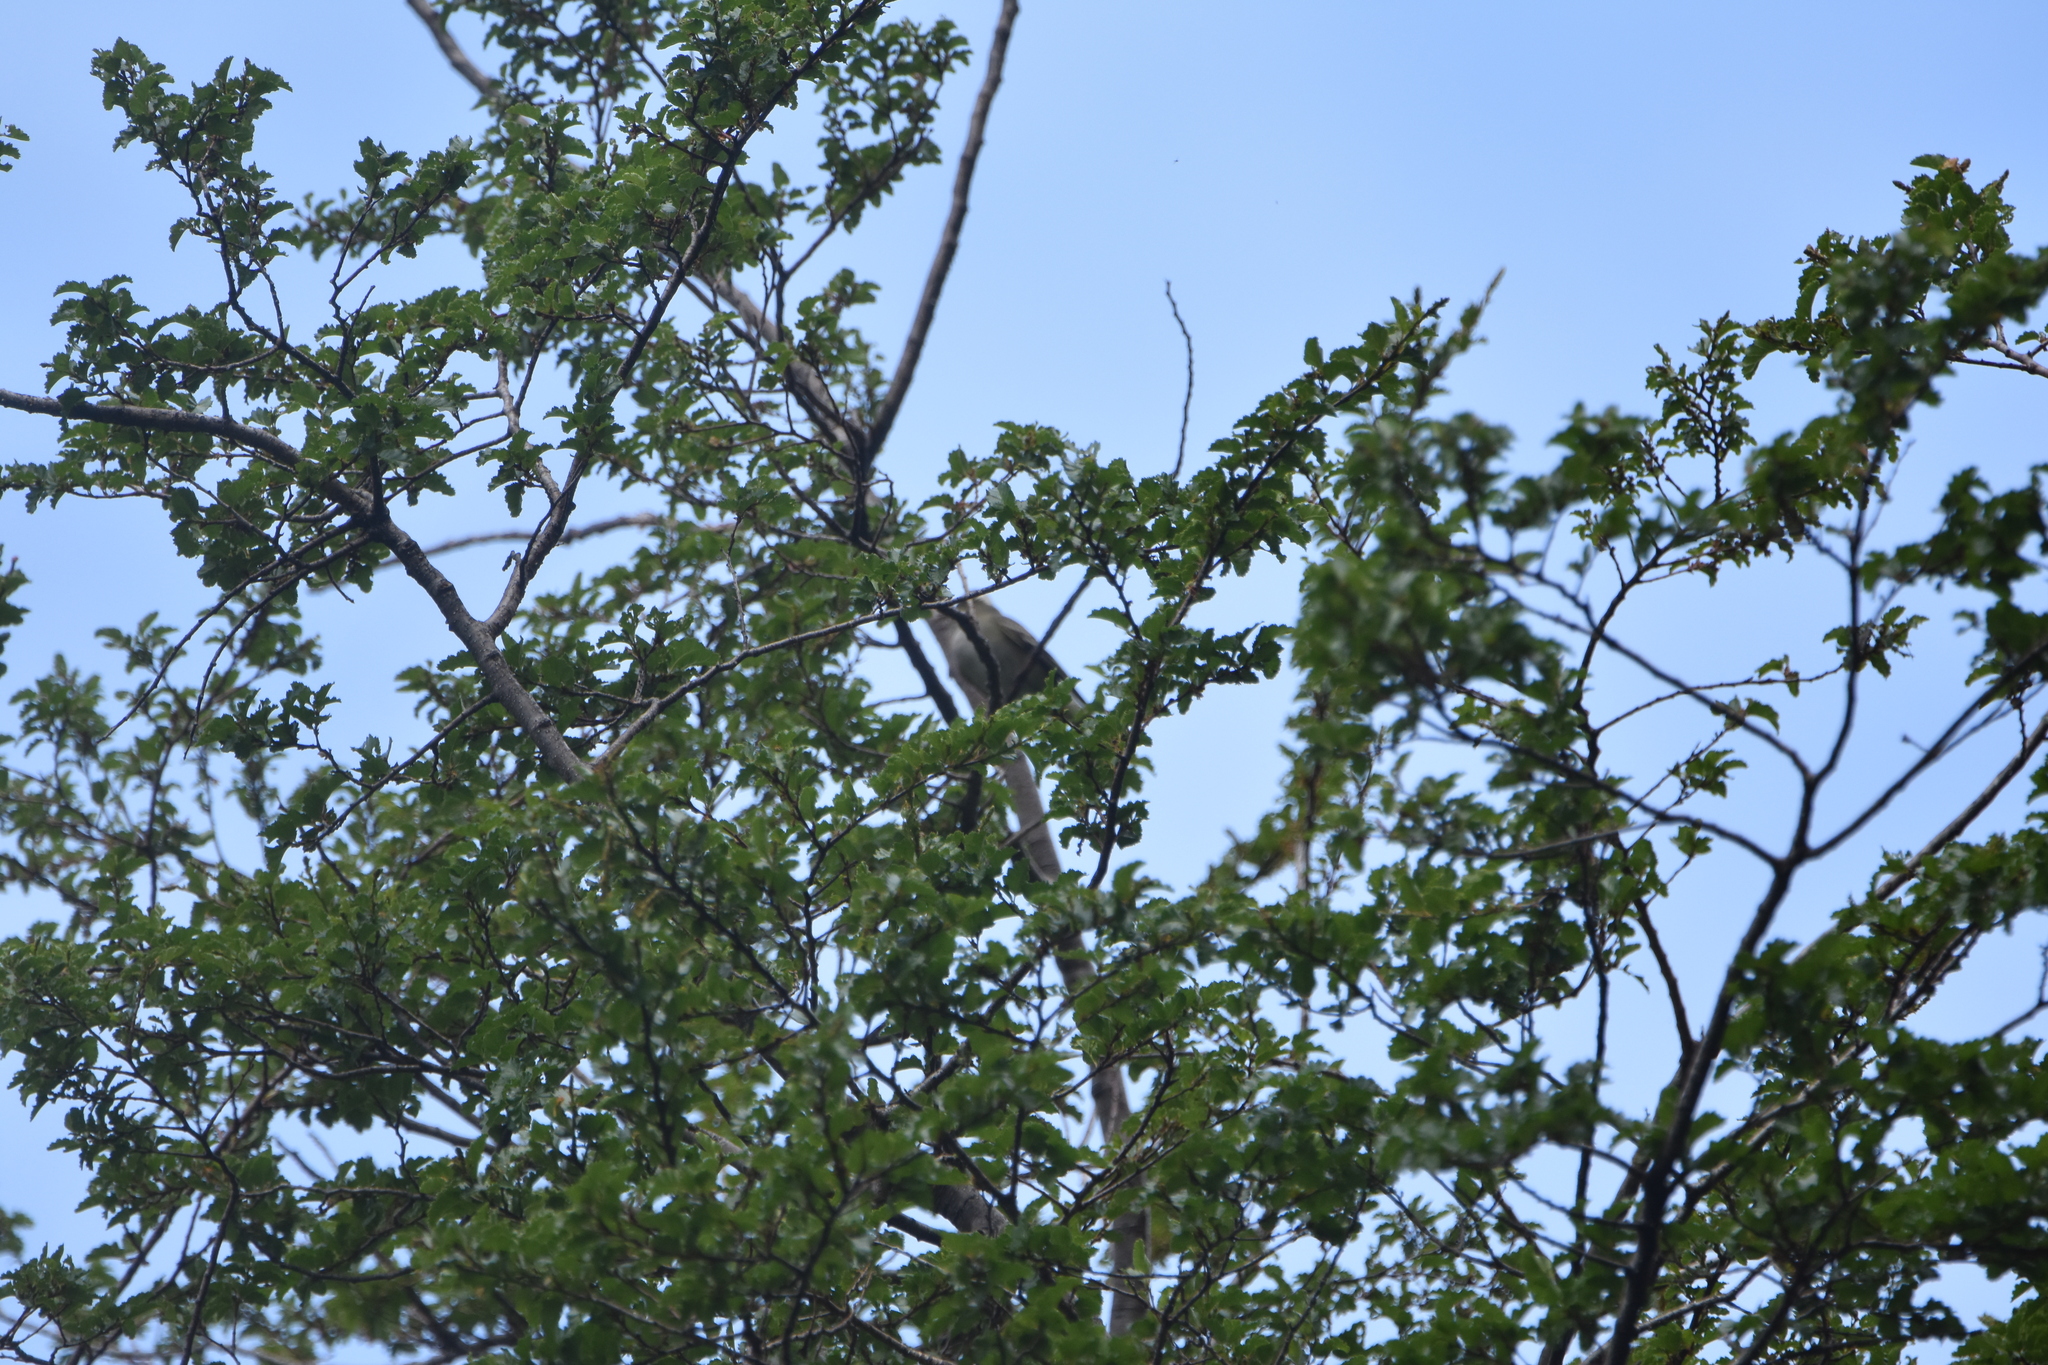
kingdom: Animalia
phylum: Chordata
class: Aves
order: Passeriformes
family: Tyrannidae
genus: Elaenia
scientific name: Elaenia albiceps
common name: White-crested elaenia
